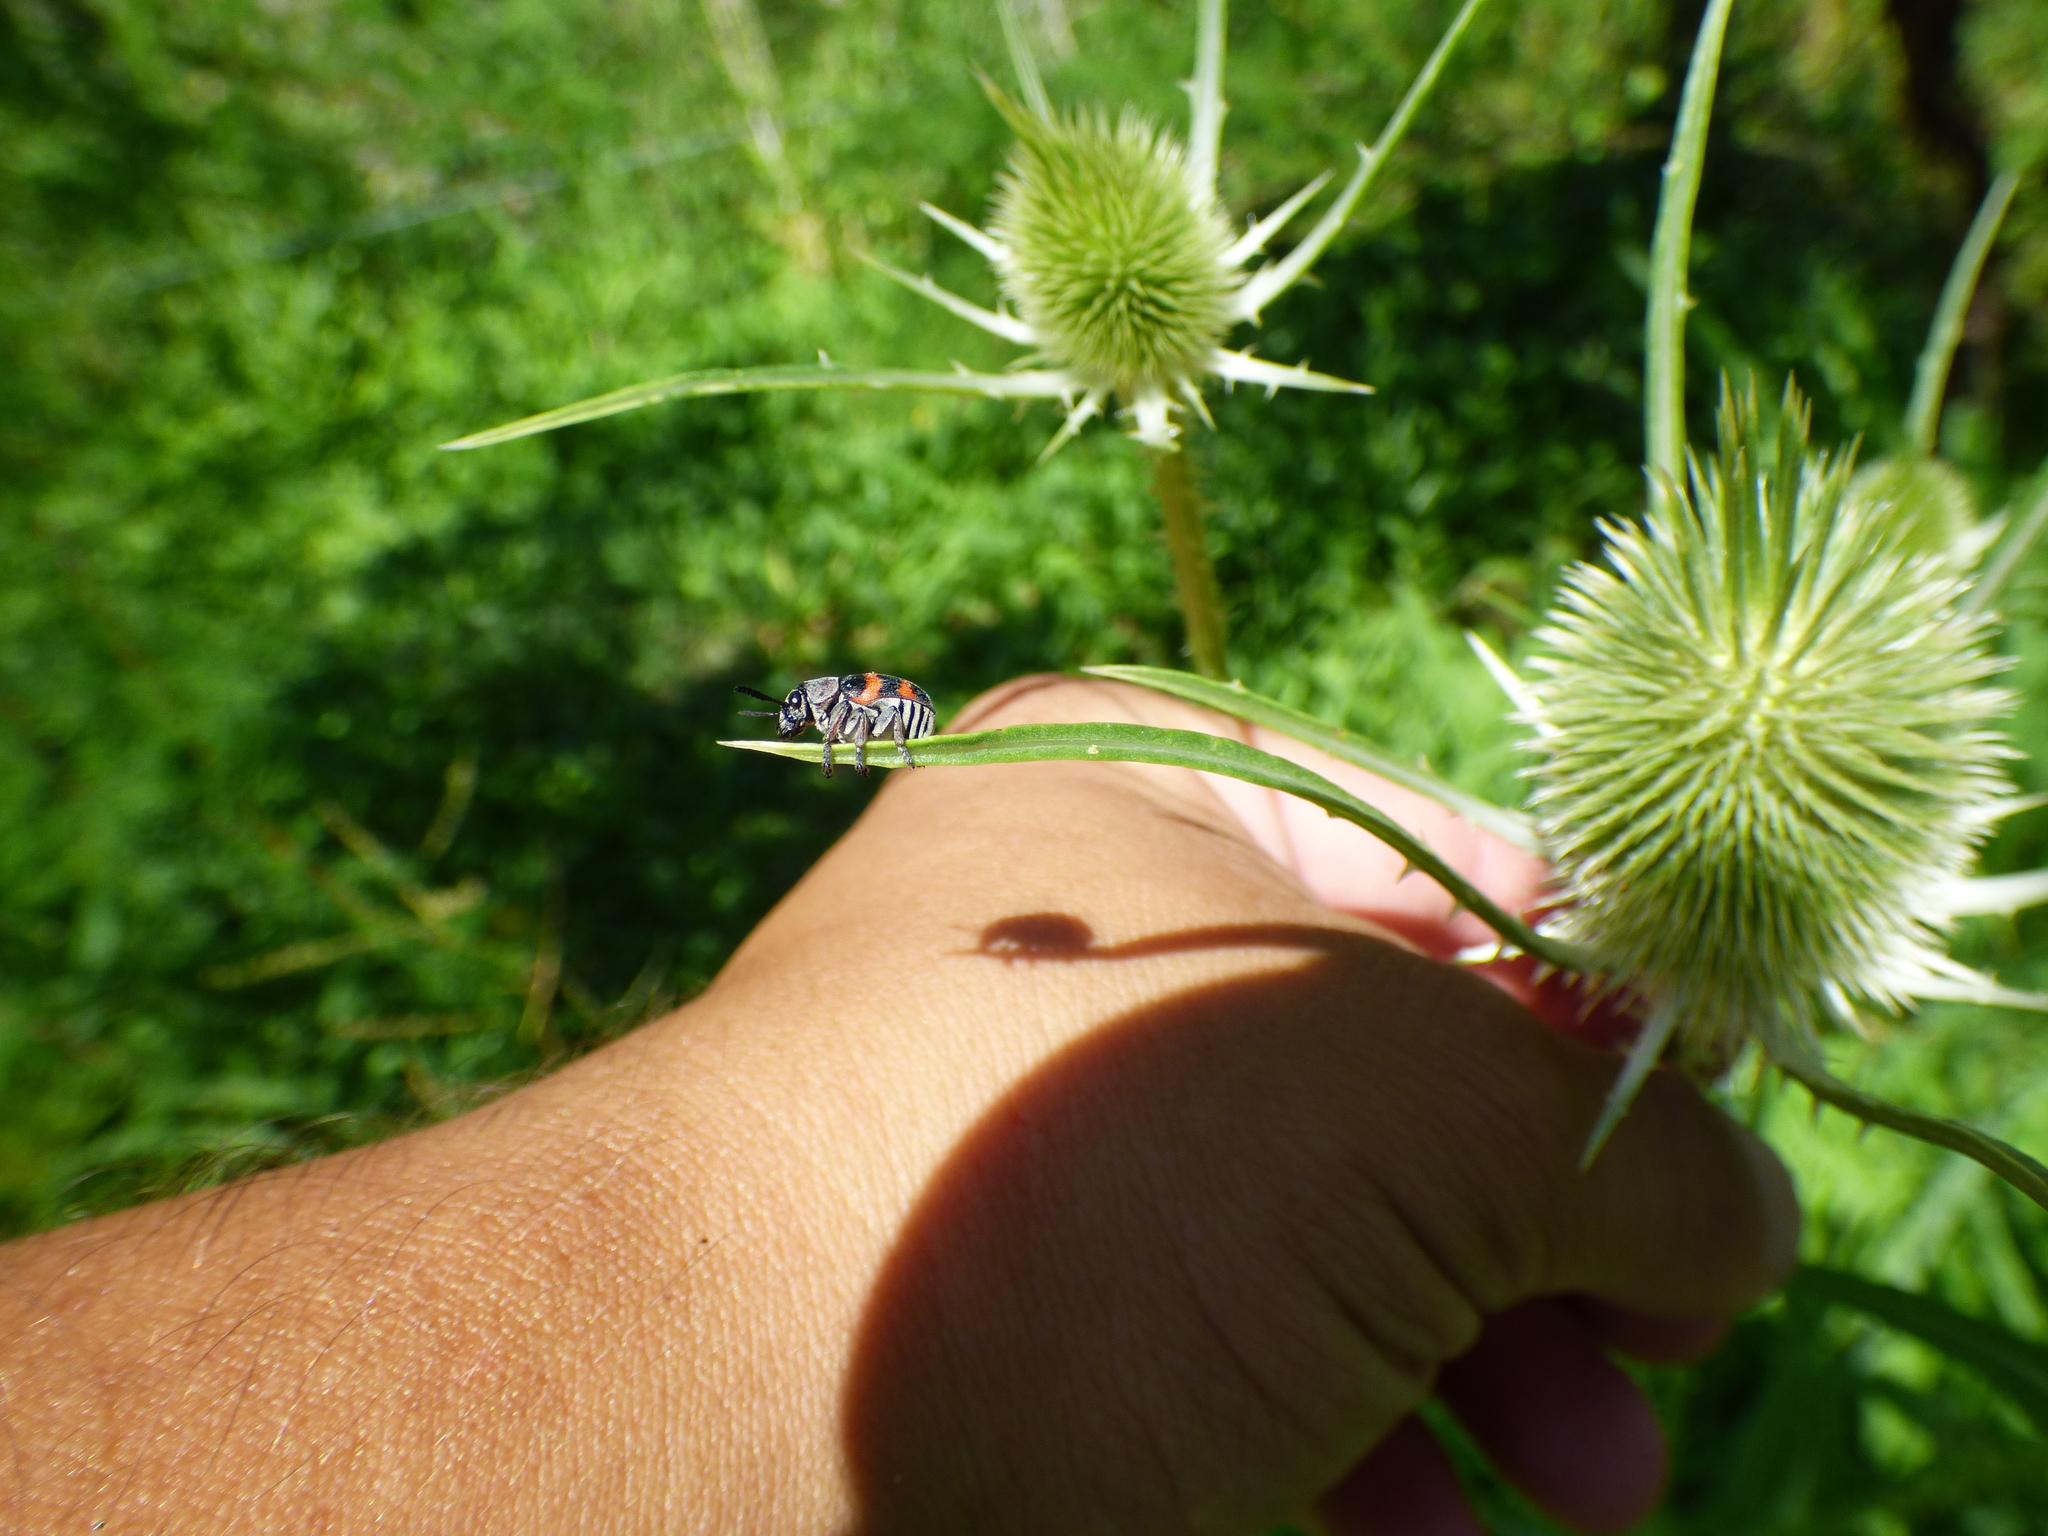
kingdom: Animalia
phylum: Arthropoda
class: Insecta
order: Coleoptera
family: Chrysomelidae
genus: Megalostomis
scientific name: Megalostomis gazella
